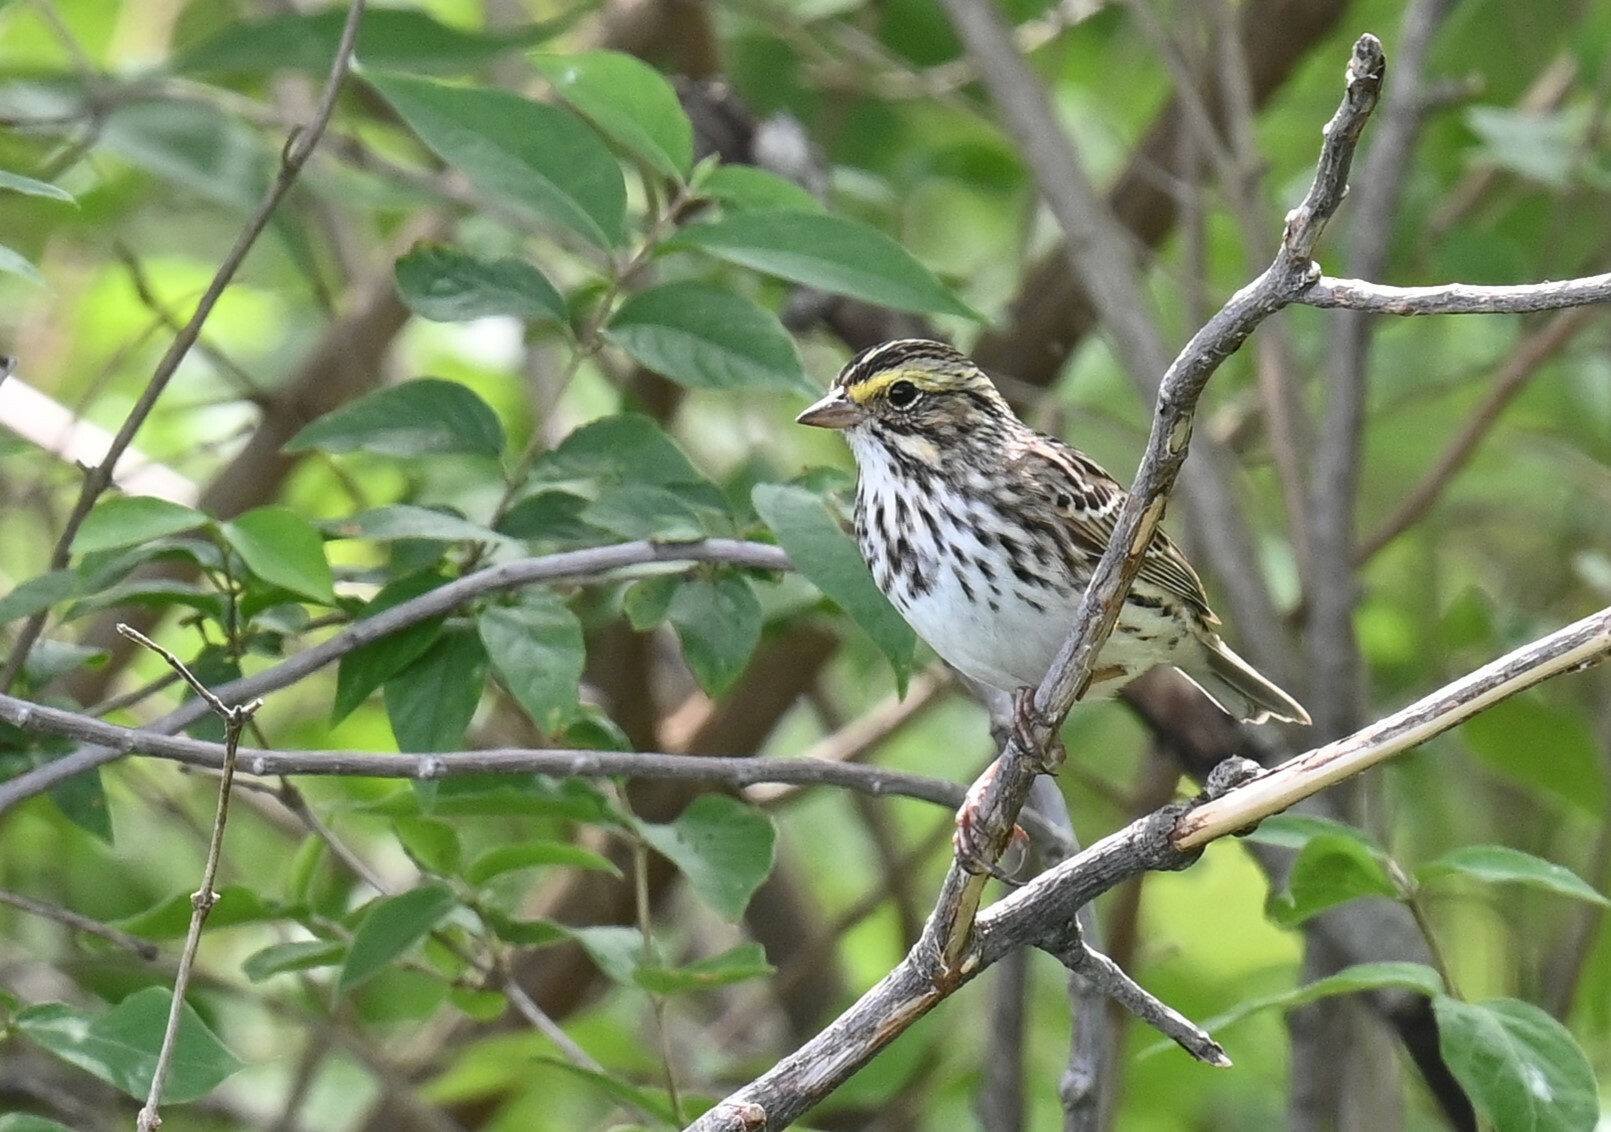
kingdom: Animalia
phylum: Chordata
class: Aves
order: Passeriformes
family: Passerellidae
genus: Passerculus
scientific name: Passerculus sandwichensis
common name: Savannah sparrow
